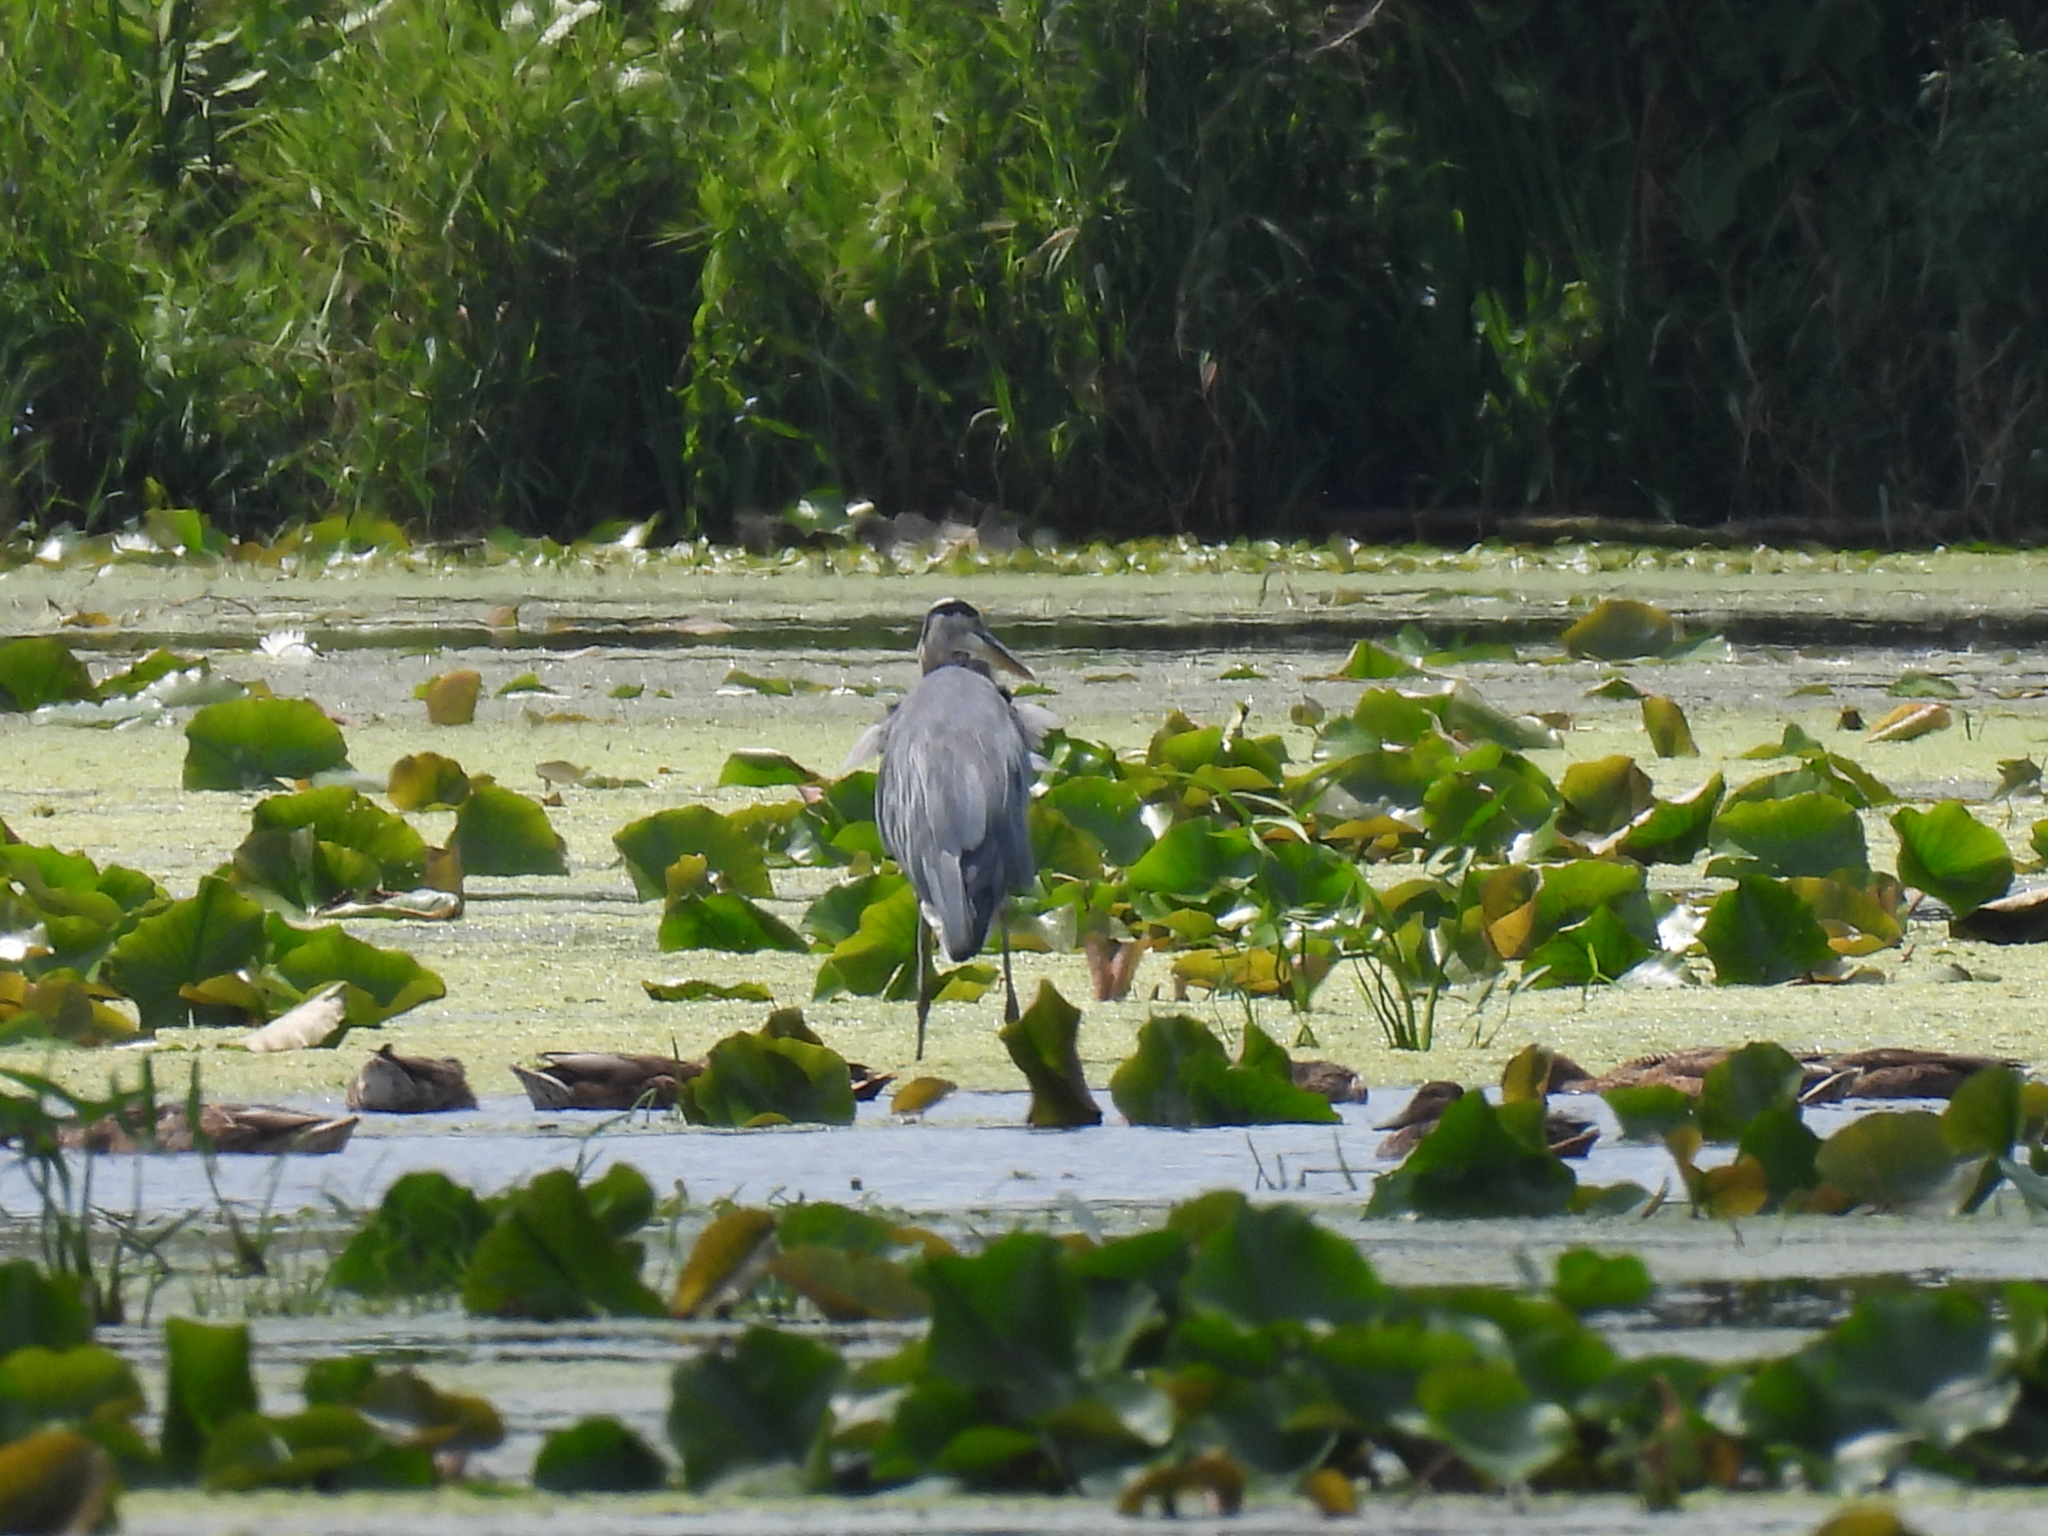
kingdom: Animalia
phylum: Chordata
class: Aves
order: Pelecaniformes
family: Ardeidae
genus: Ardea
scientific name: Ardea herodias
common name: Great blue heron
